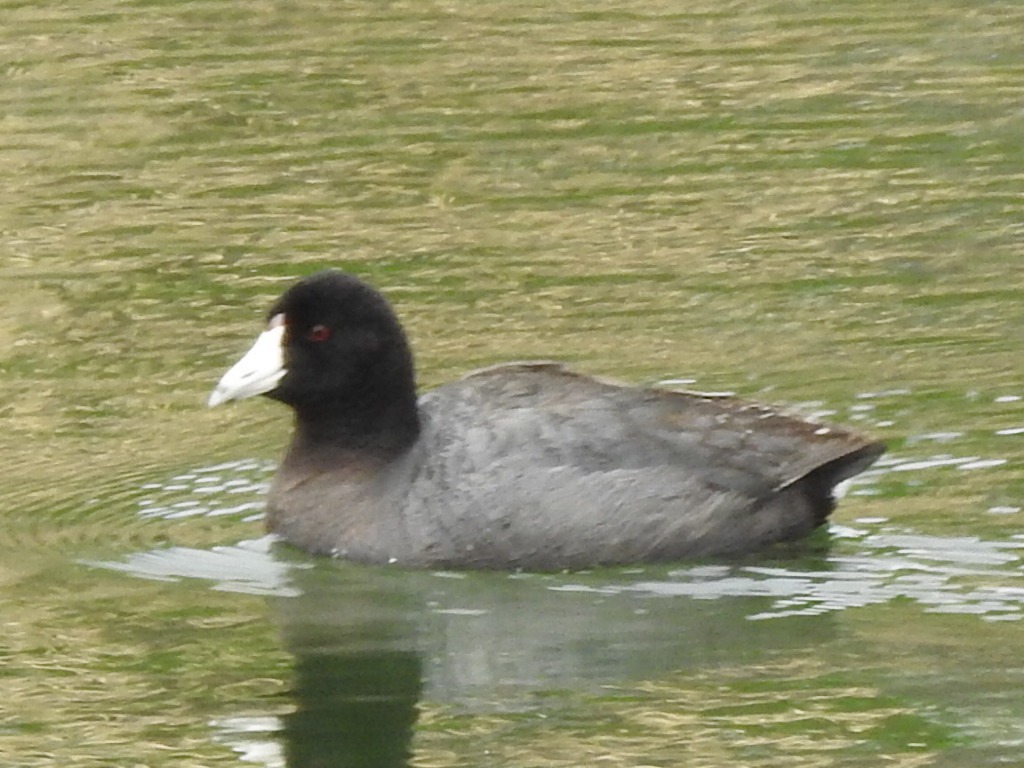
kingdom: Animalia
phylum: Chordata
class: Aves
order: Gruiformes
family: Rallidae
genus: Fulica
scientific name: Fulica americana
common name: American coot
